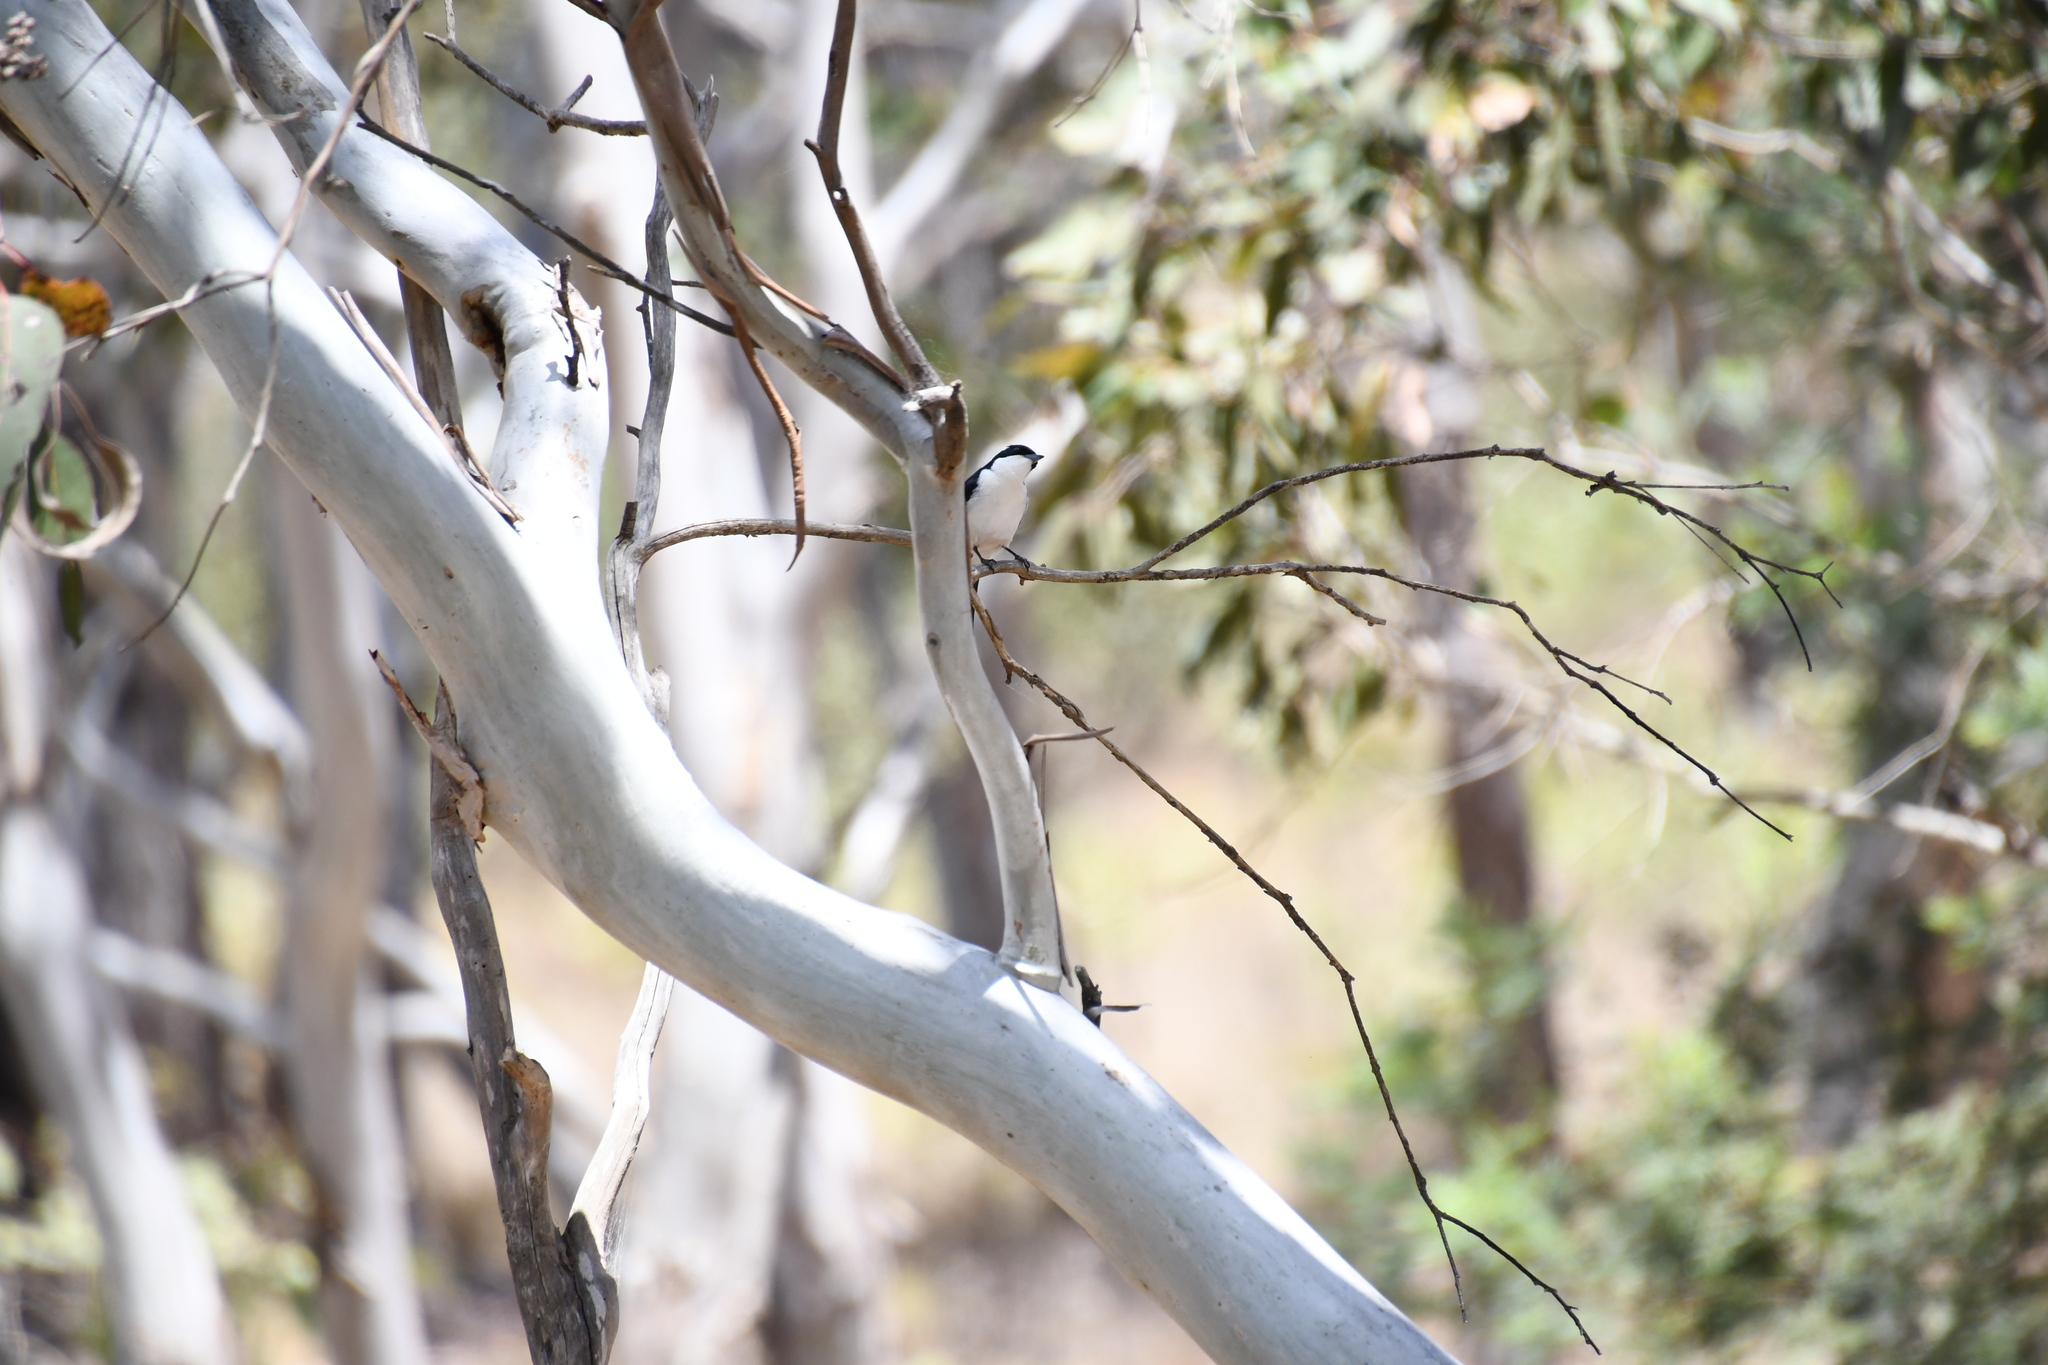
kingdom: Animalia
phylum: Chordata
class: Aves
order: Passeriformes
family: Monarchidae
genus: Myiagra
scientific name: Myiagra inquieta
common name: Restless flycatcher
